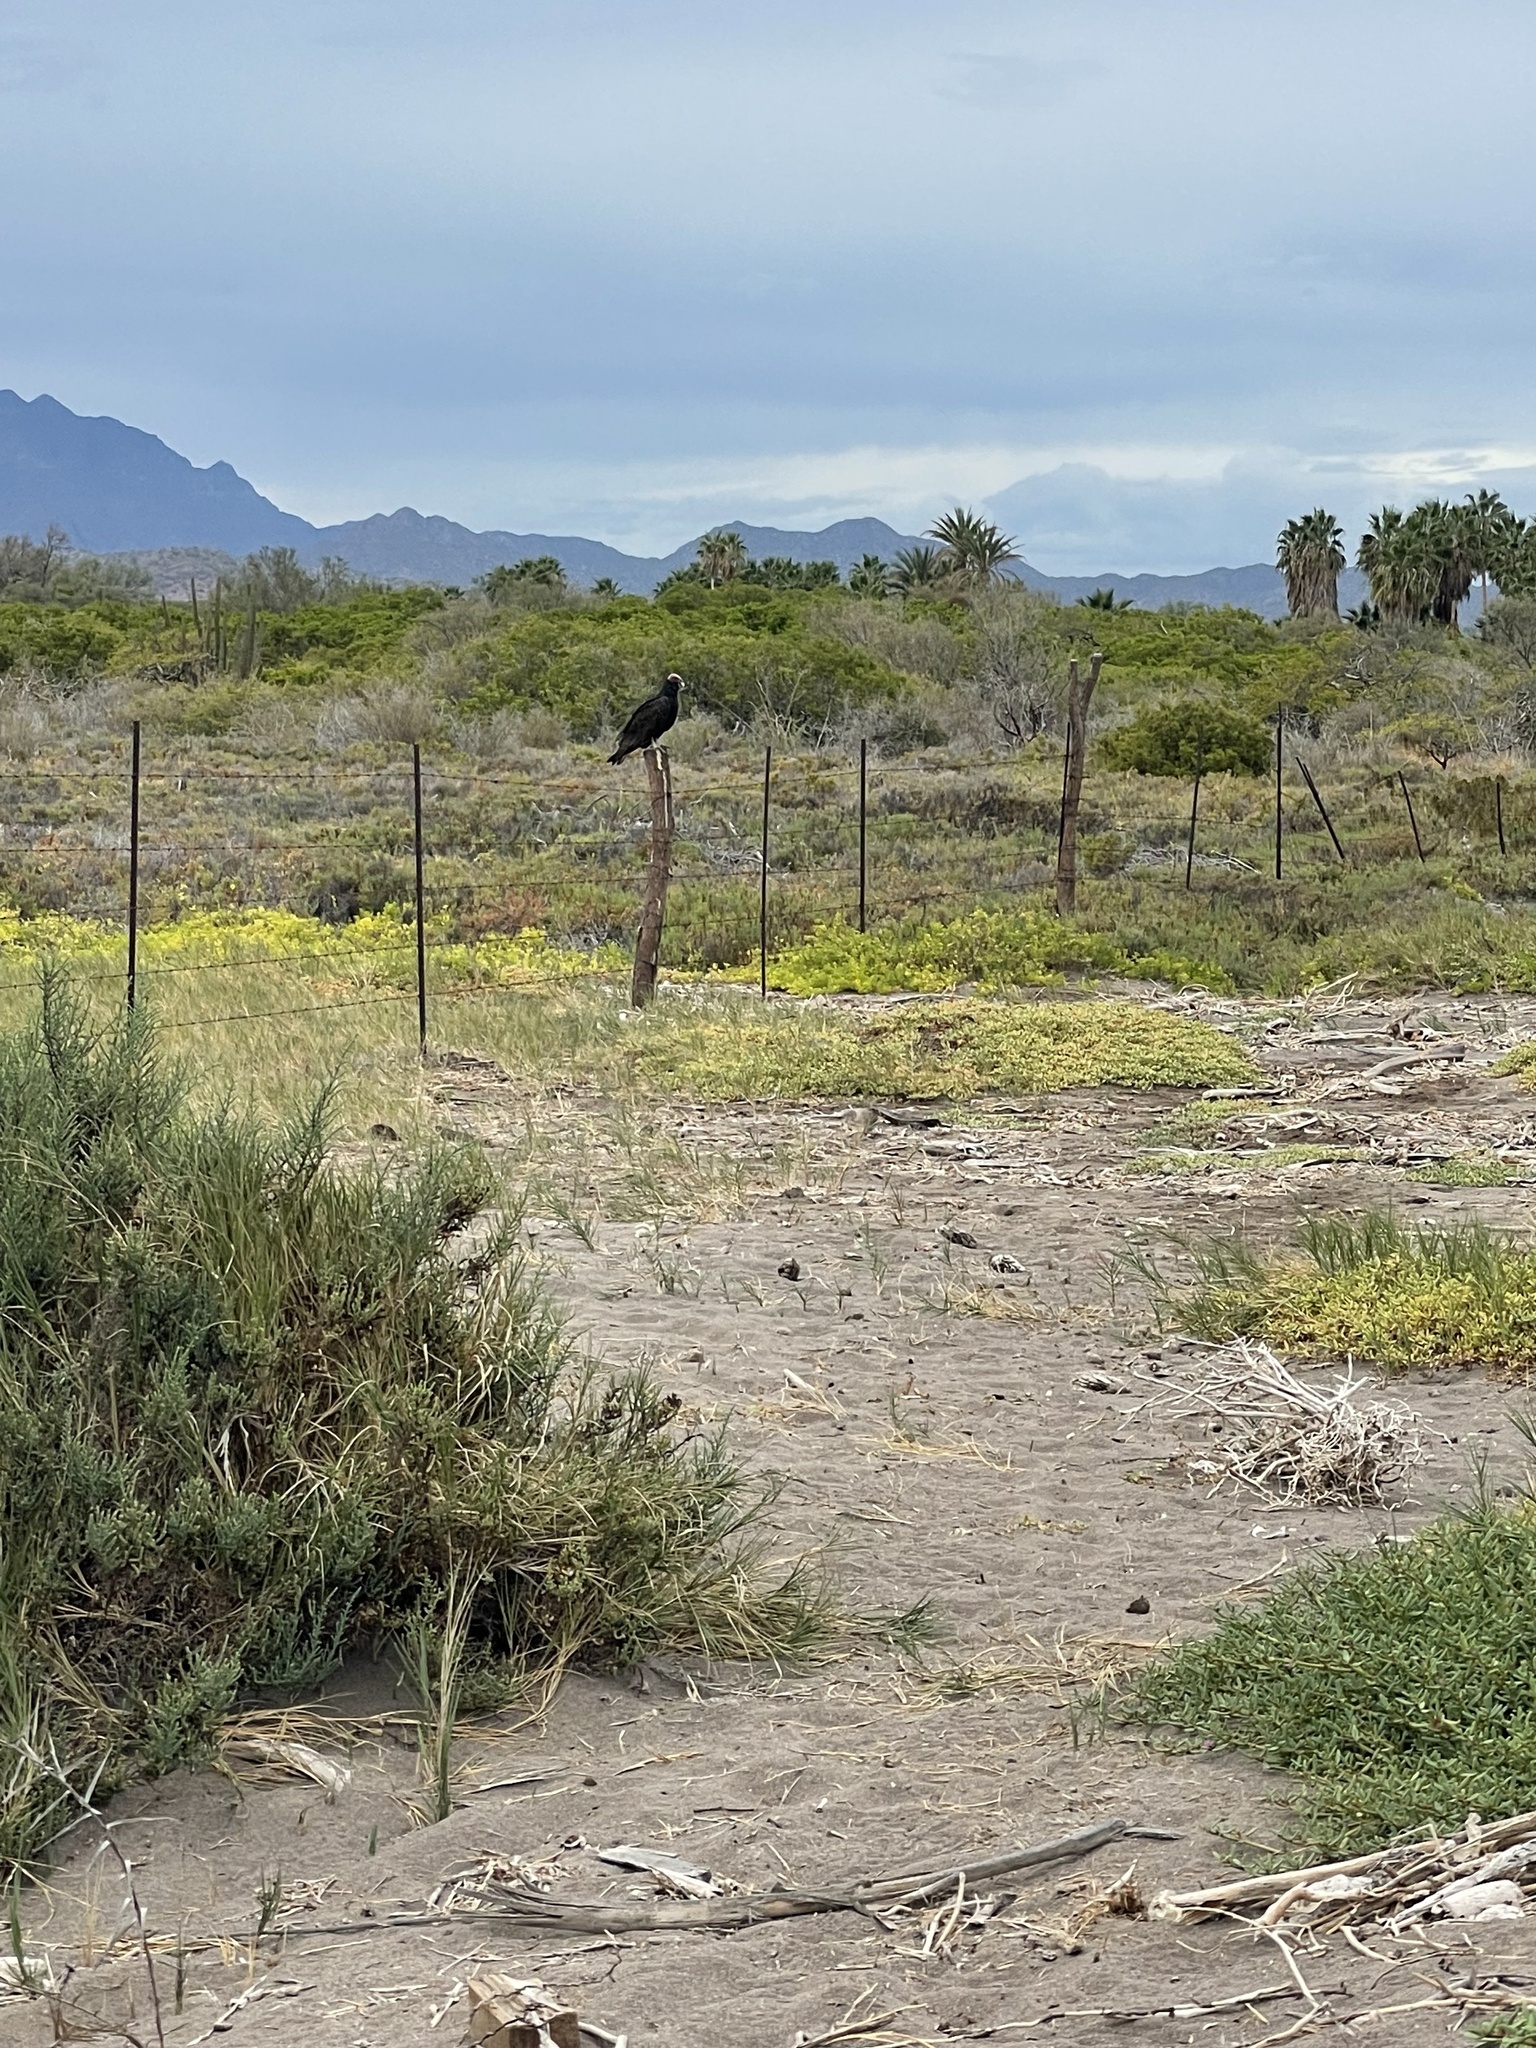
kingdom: Animalia
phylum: Chordata
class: Aves
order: Accipitriformes
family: Cathartidae
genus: Cathartes
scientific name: Cathartes aura
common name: Turkey vulture
